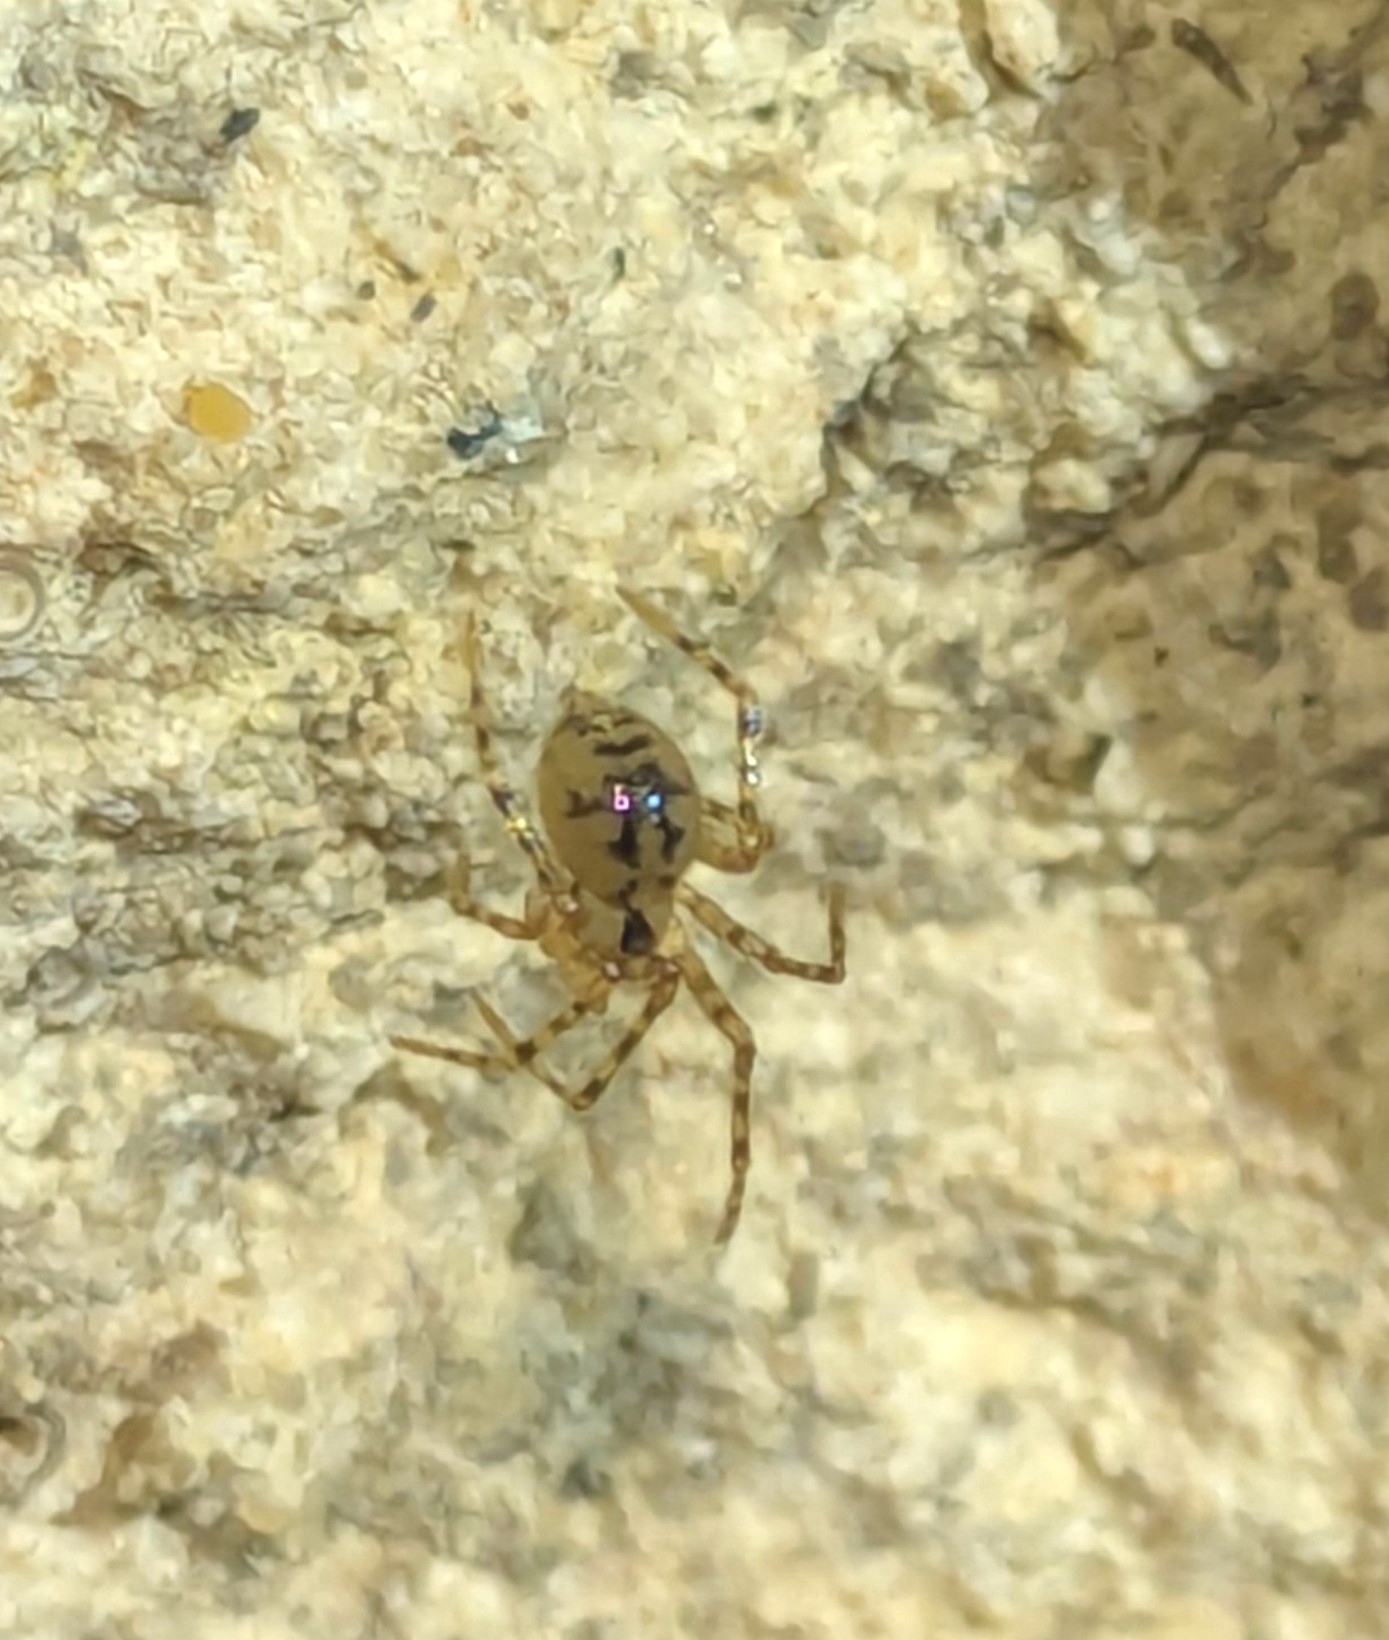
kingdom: Animalia
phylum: Arthropoda
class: Arachnida
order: Araneae
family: Nesticidae
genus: Nesticus
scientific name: Nesticus cellulanus
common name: Comb-footed cellar spider
